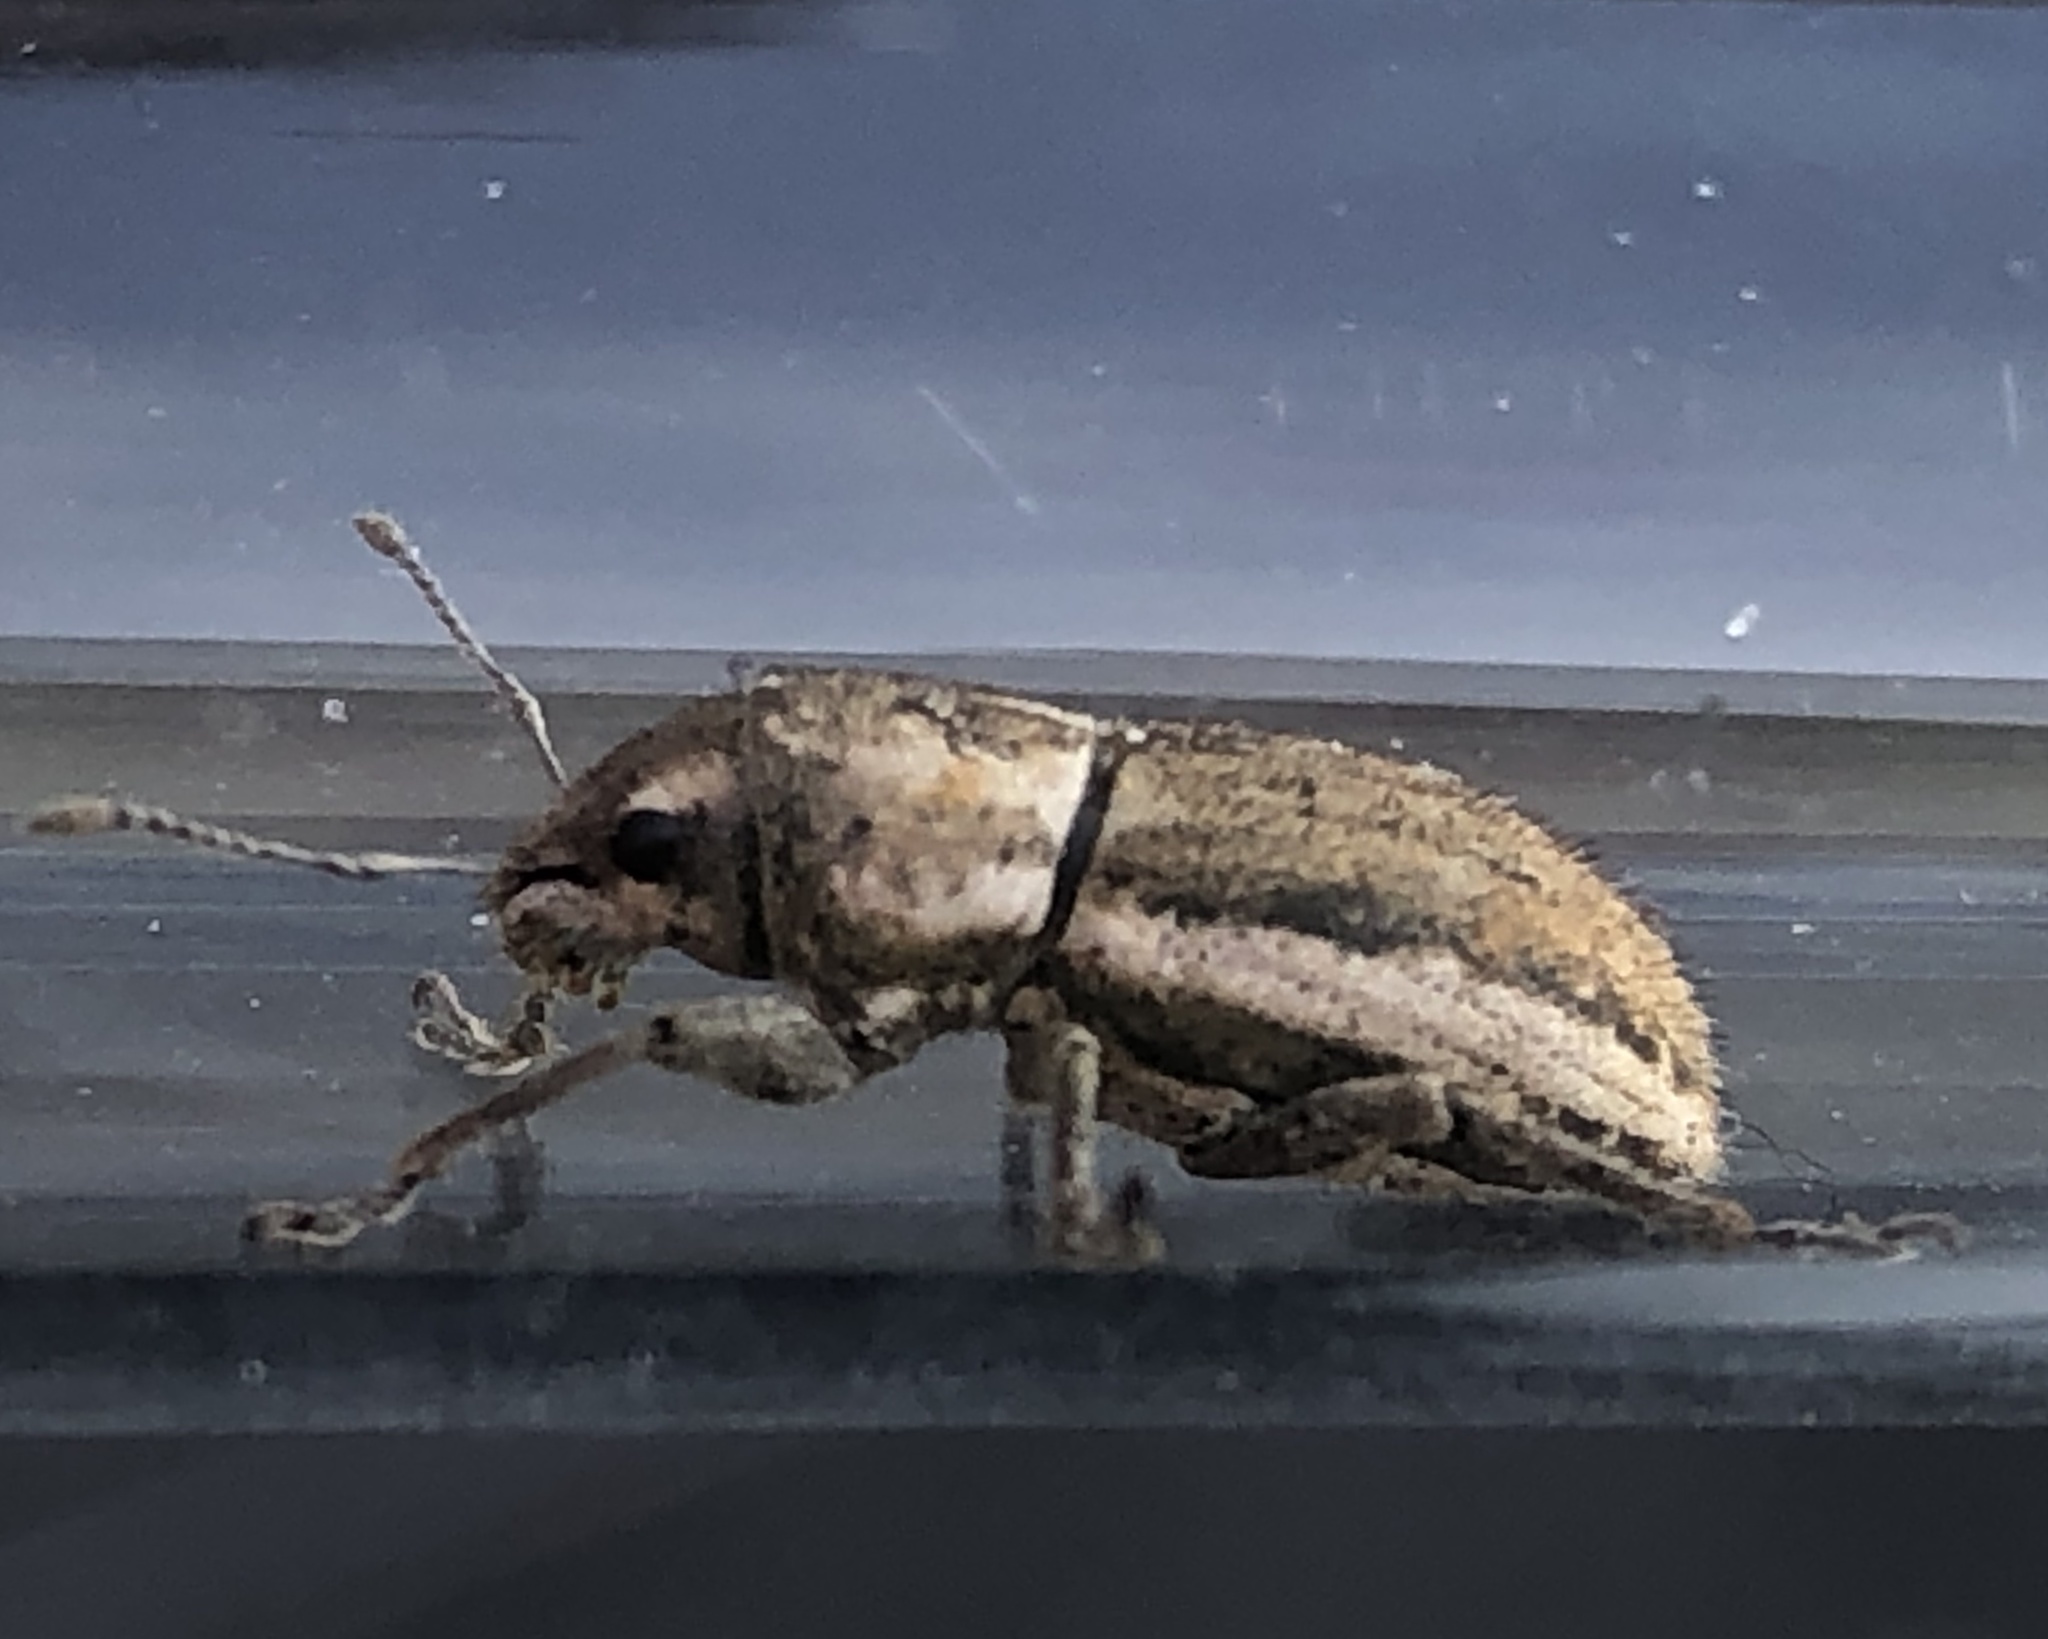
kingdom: Animalia
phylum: Arthropoda
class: Insecta
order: Coleoptera
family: Curculionidae
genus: Naupactus
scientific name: Naupactus peregrinus
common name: Whitefringed beetle
